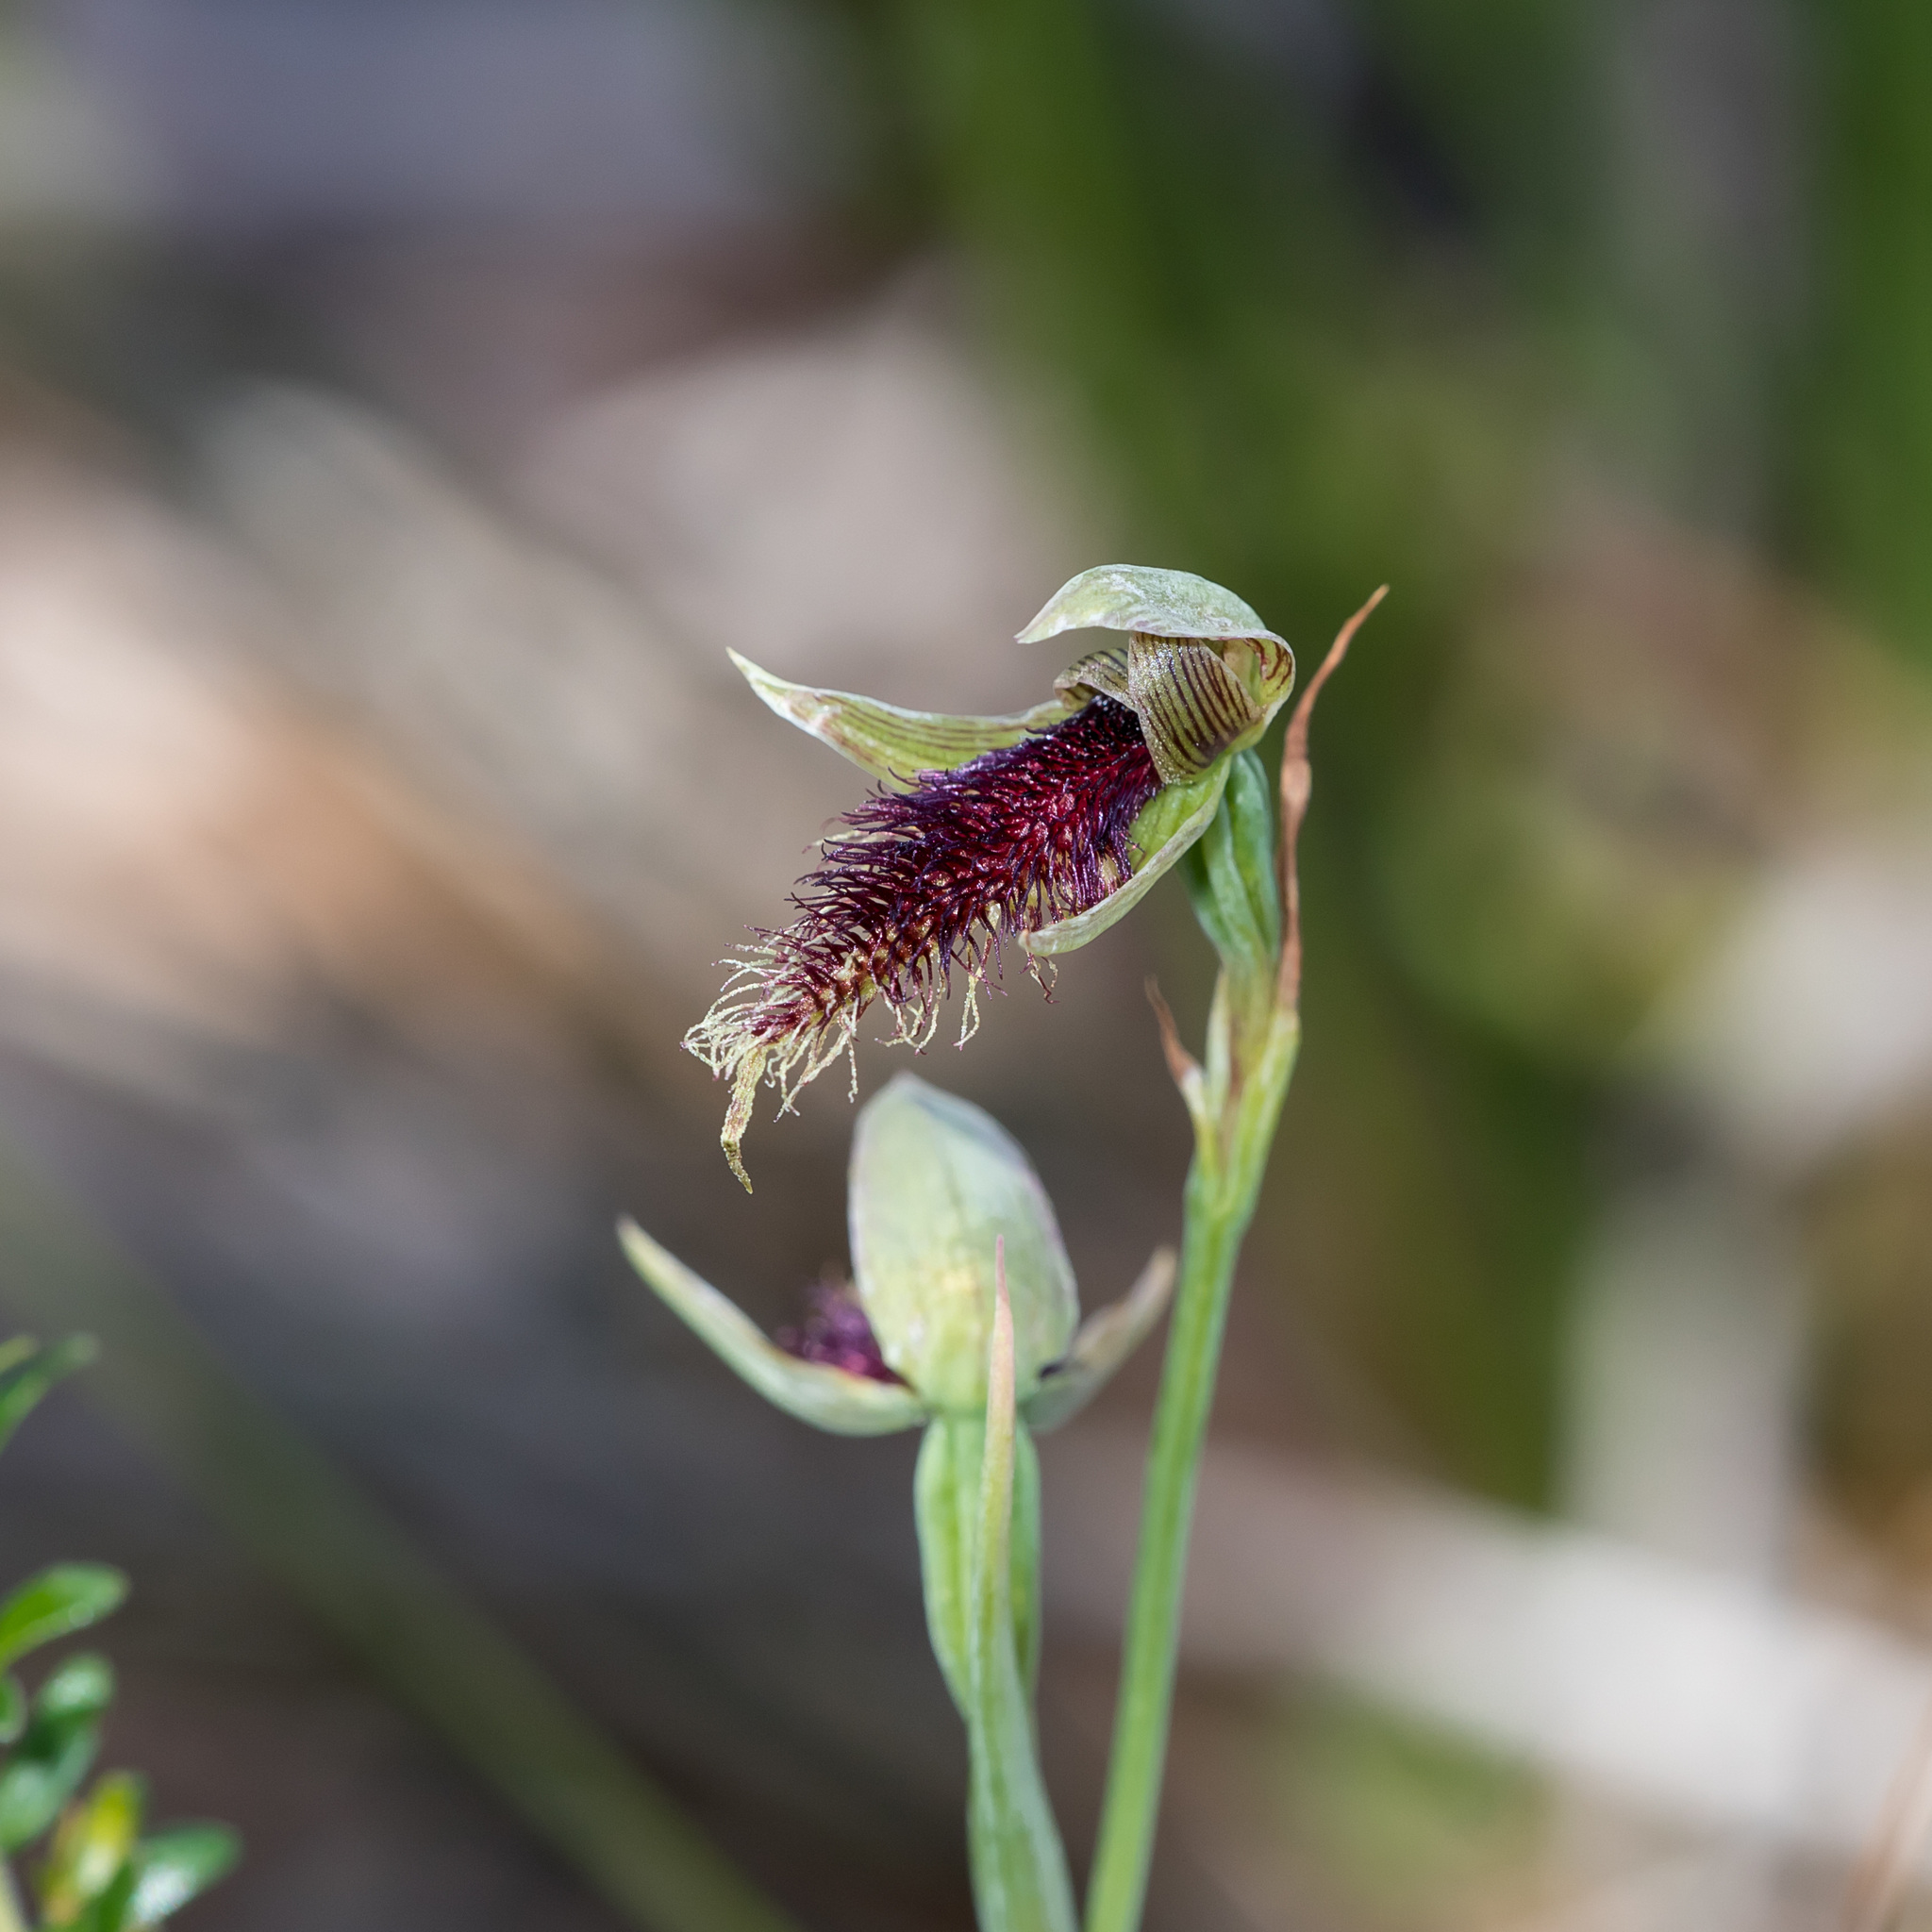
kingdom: Plantae
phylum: Tracheophyta
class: Liliopsida
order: Asparagales
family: Orchidaceae
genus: Calochilus
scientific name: Calochilus robertsonii
